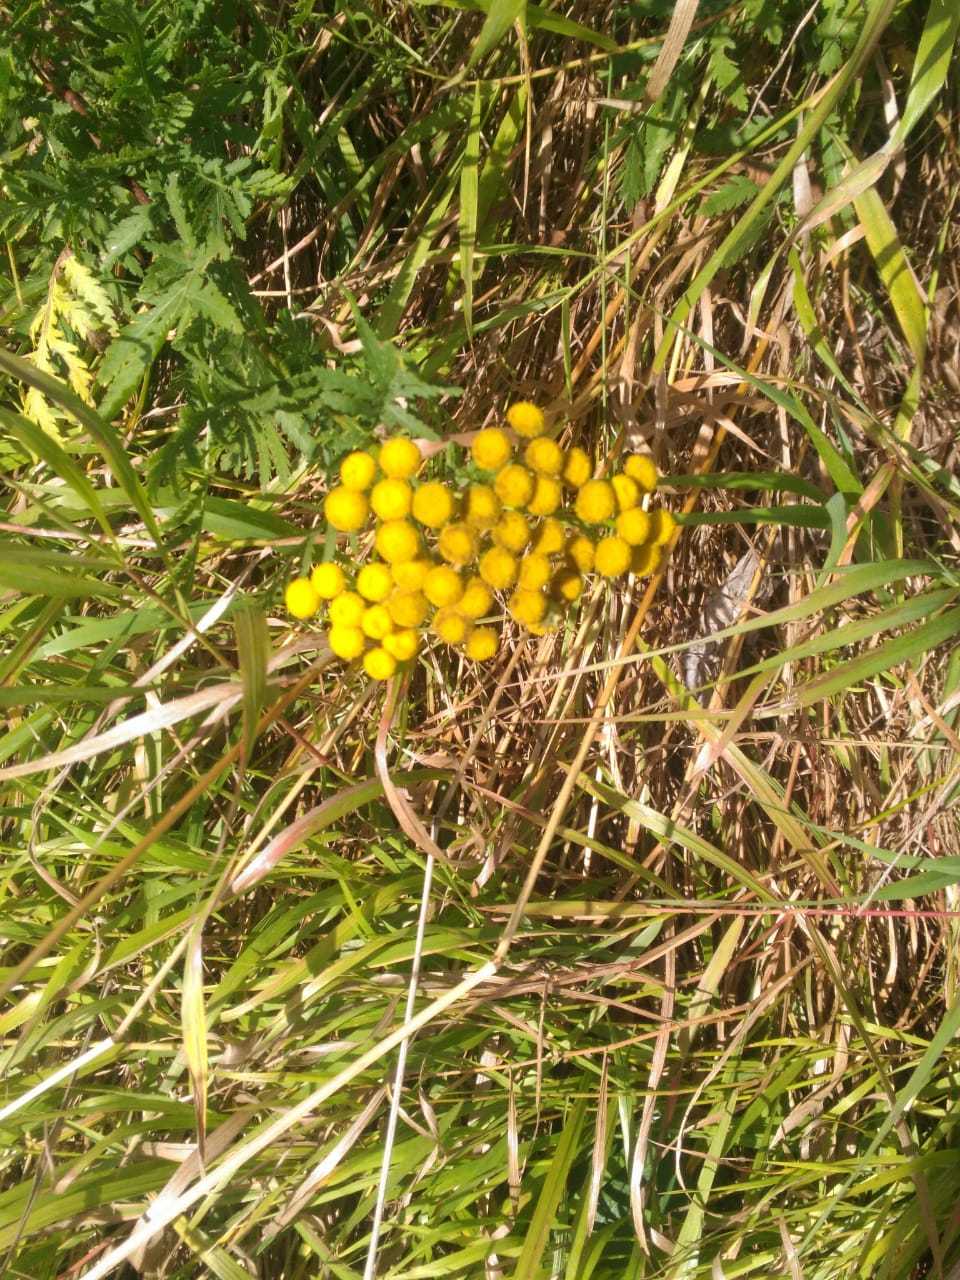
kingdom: Plantae
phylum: Tracheophyta
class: Magnoliopsida
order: Asterales
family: Asteraceae
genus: Tanacetum
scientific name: Tanacetum vulgare
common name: Common tansy
